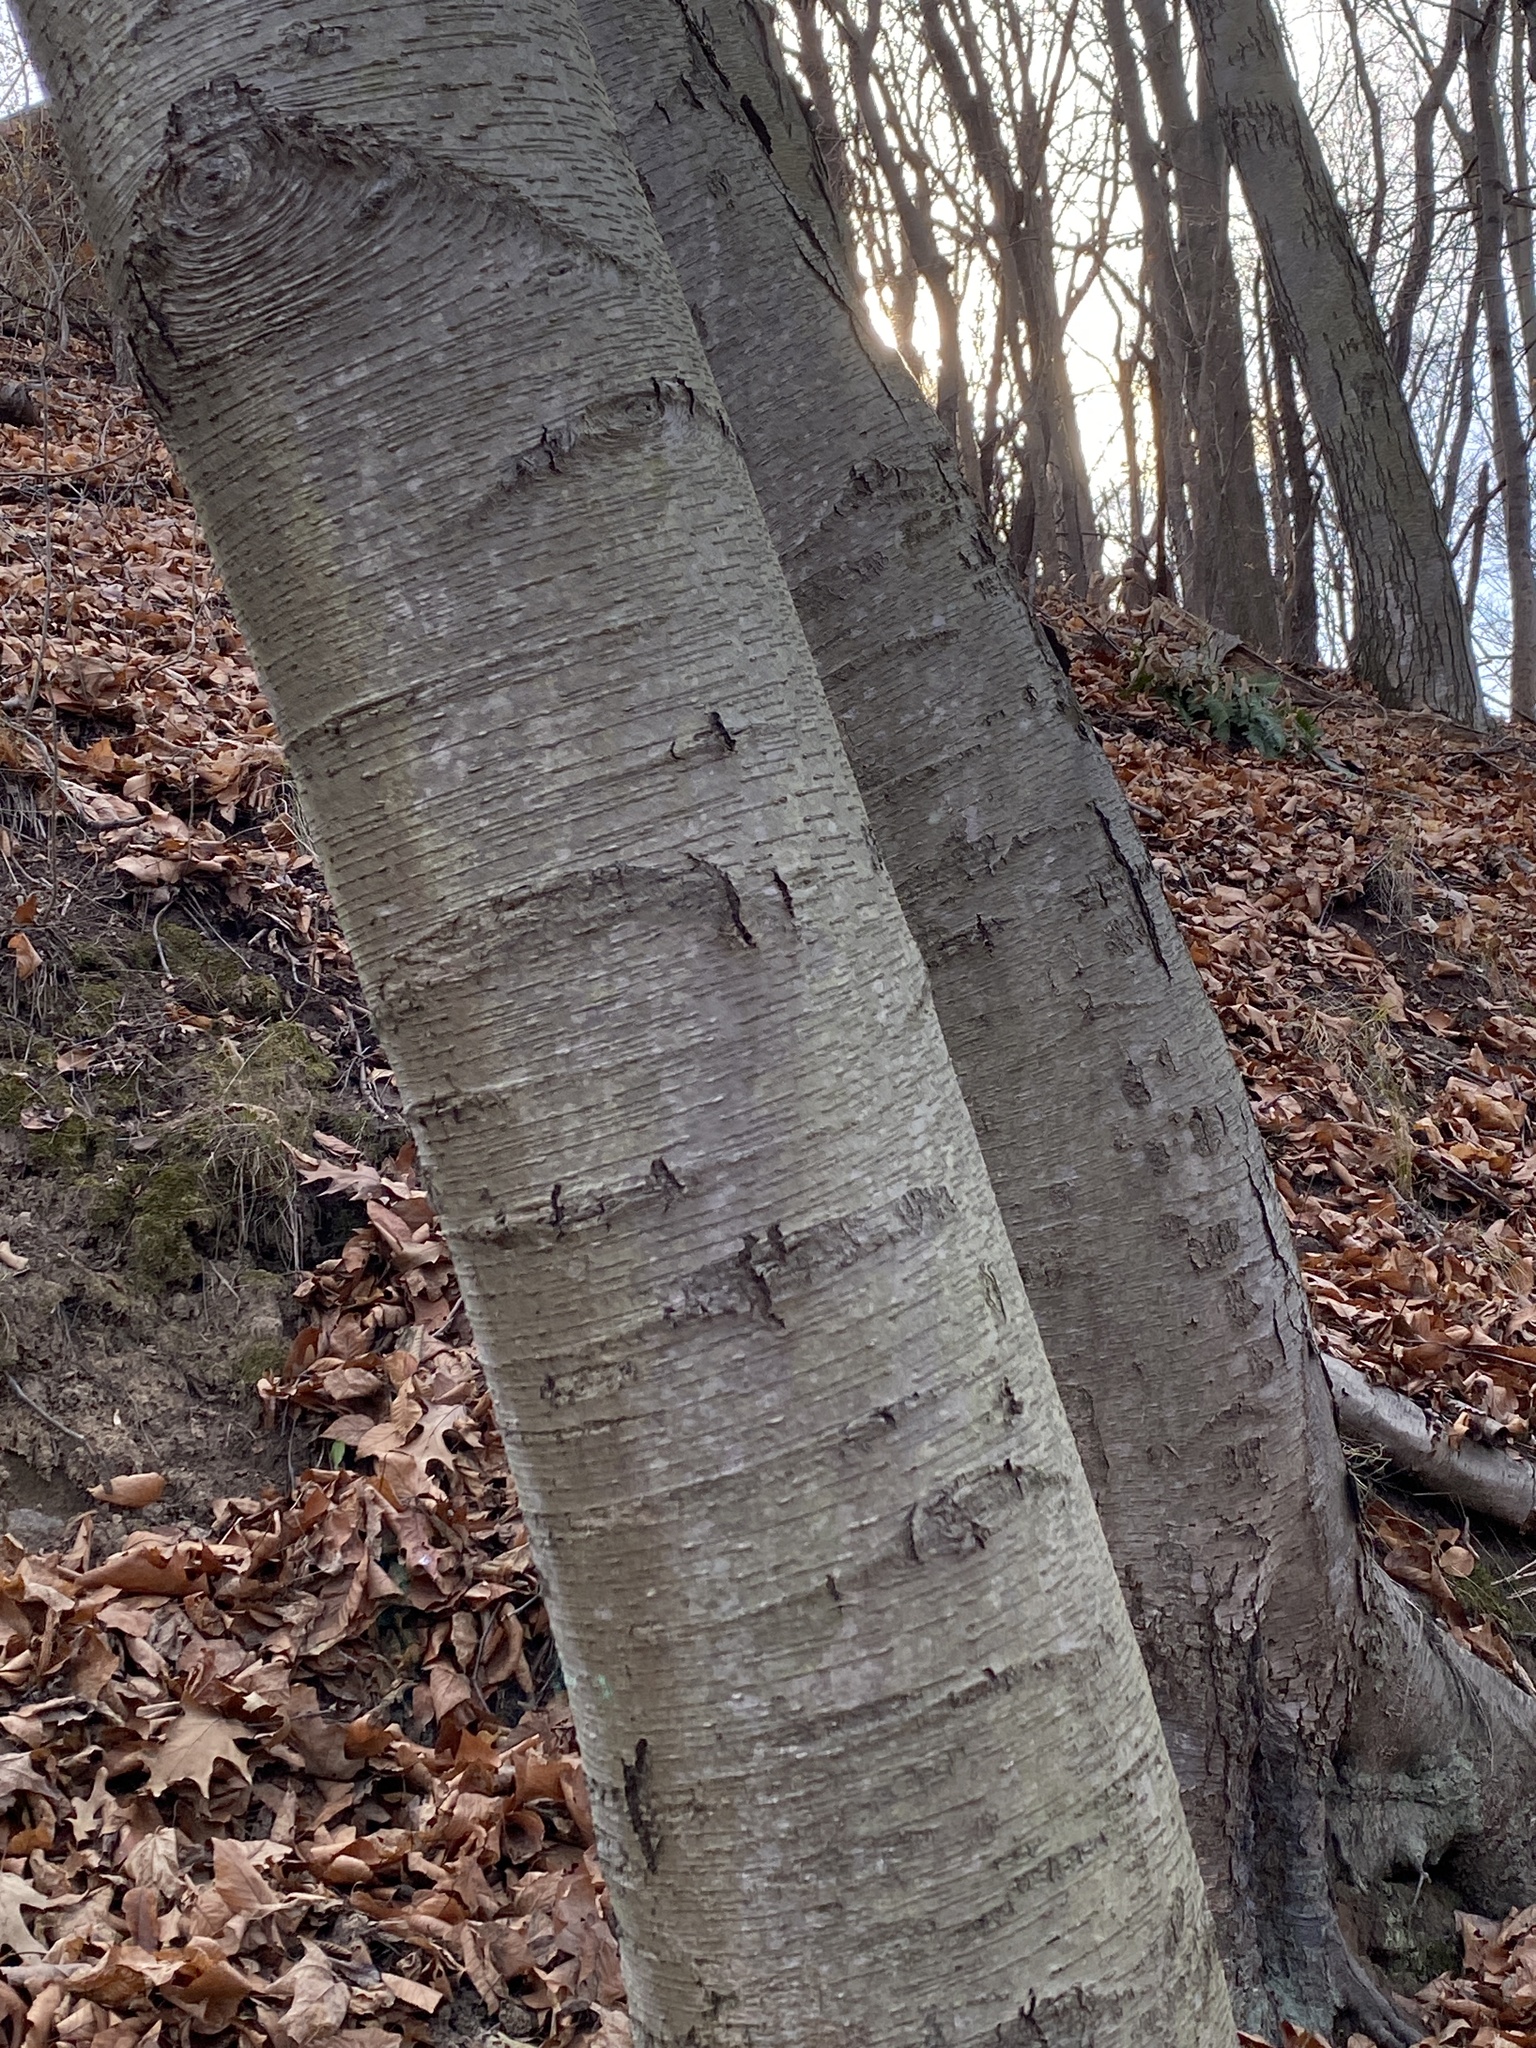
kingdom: Plantae
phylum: Tracheophyta
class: Magnoliopsida
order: Fagales
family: Betulaceae
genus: Betula
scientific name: Betula lenta
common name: Black birch
